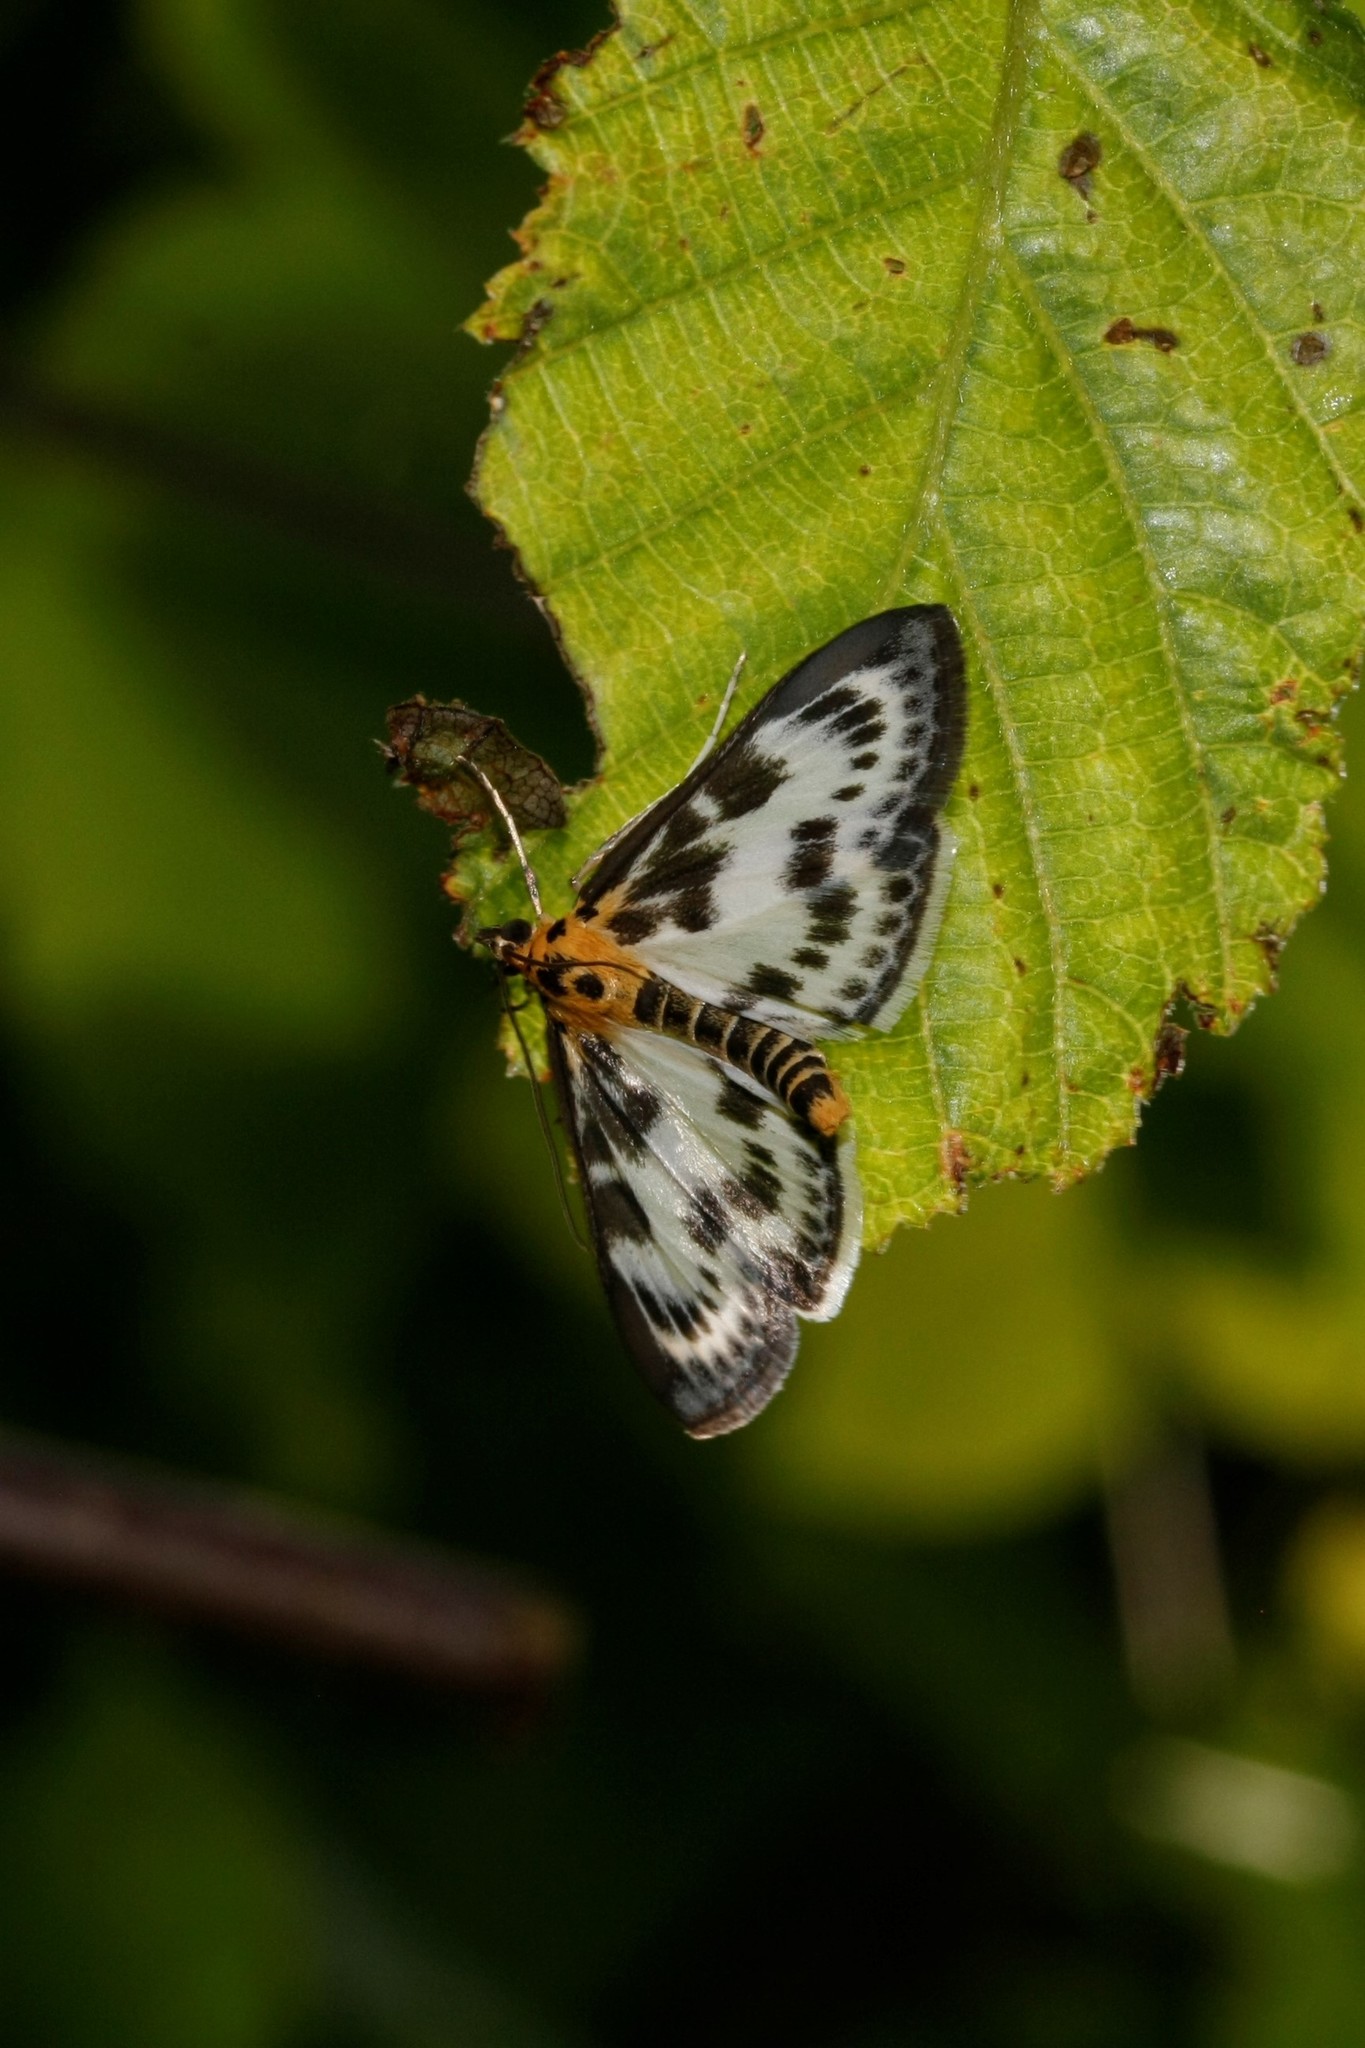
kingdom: Animalia
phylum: Arthropoda
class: Insecta
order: Lepidoptera
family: Crambidae
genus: Anania
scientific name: Anania hortulata
